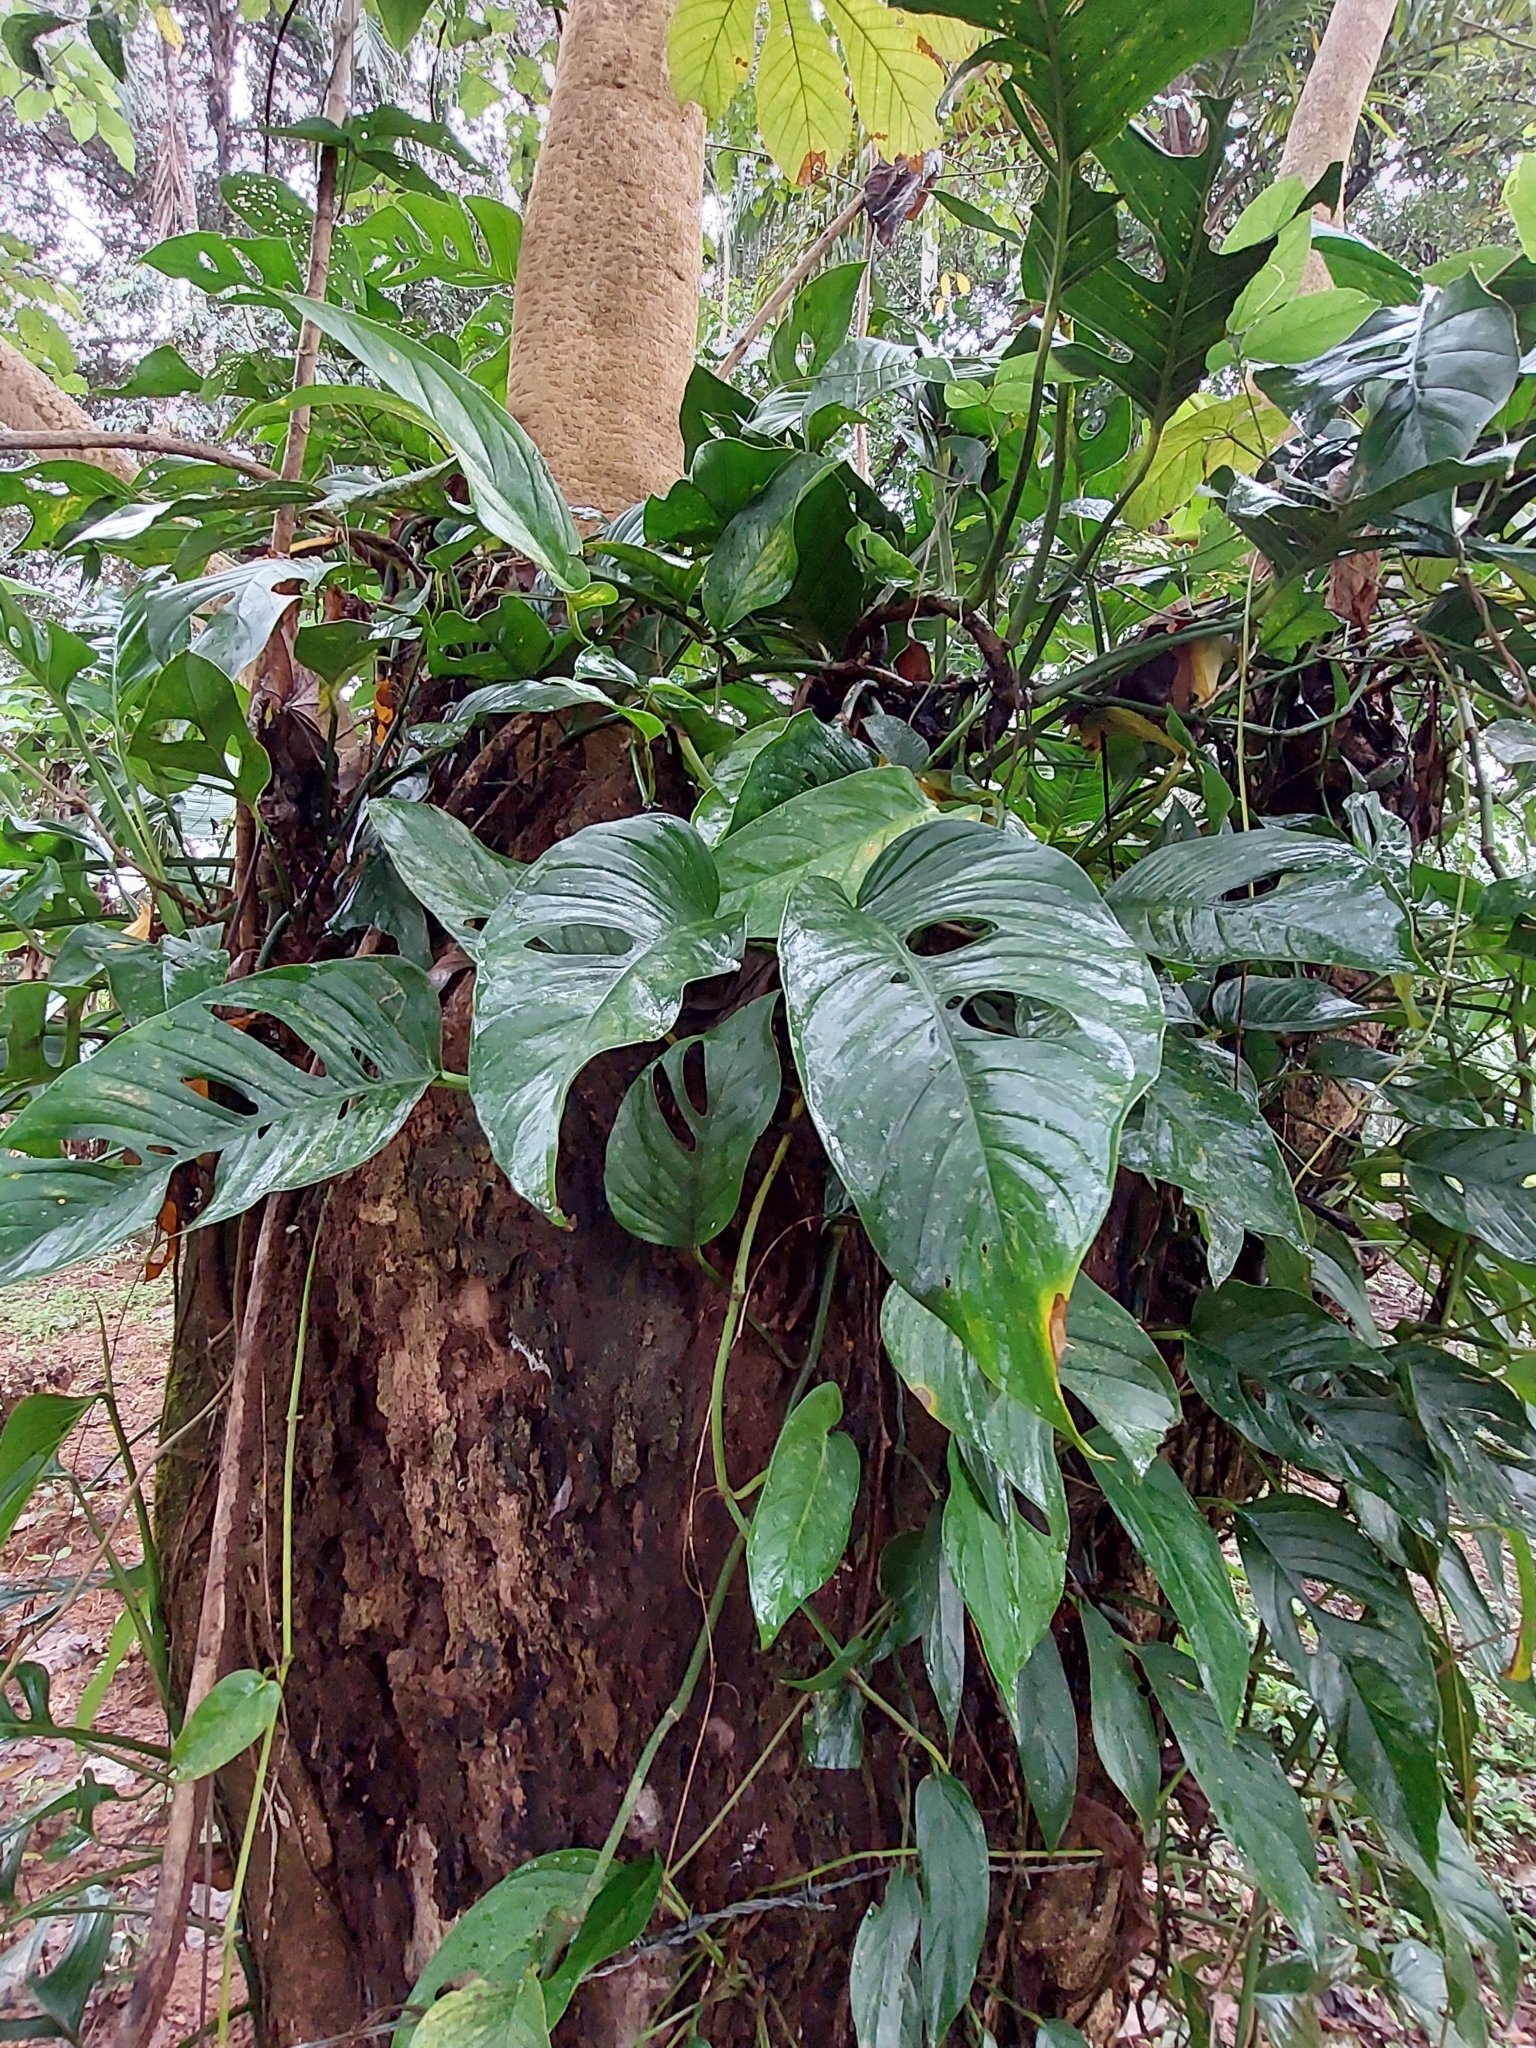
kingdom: Plantae
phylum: Tracheophyta
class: Liliopsida
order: Alismatales
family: Araceae
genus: Monstera
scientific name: Monstera adansonii
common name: Tarovine
